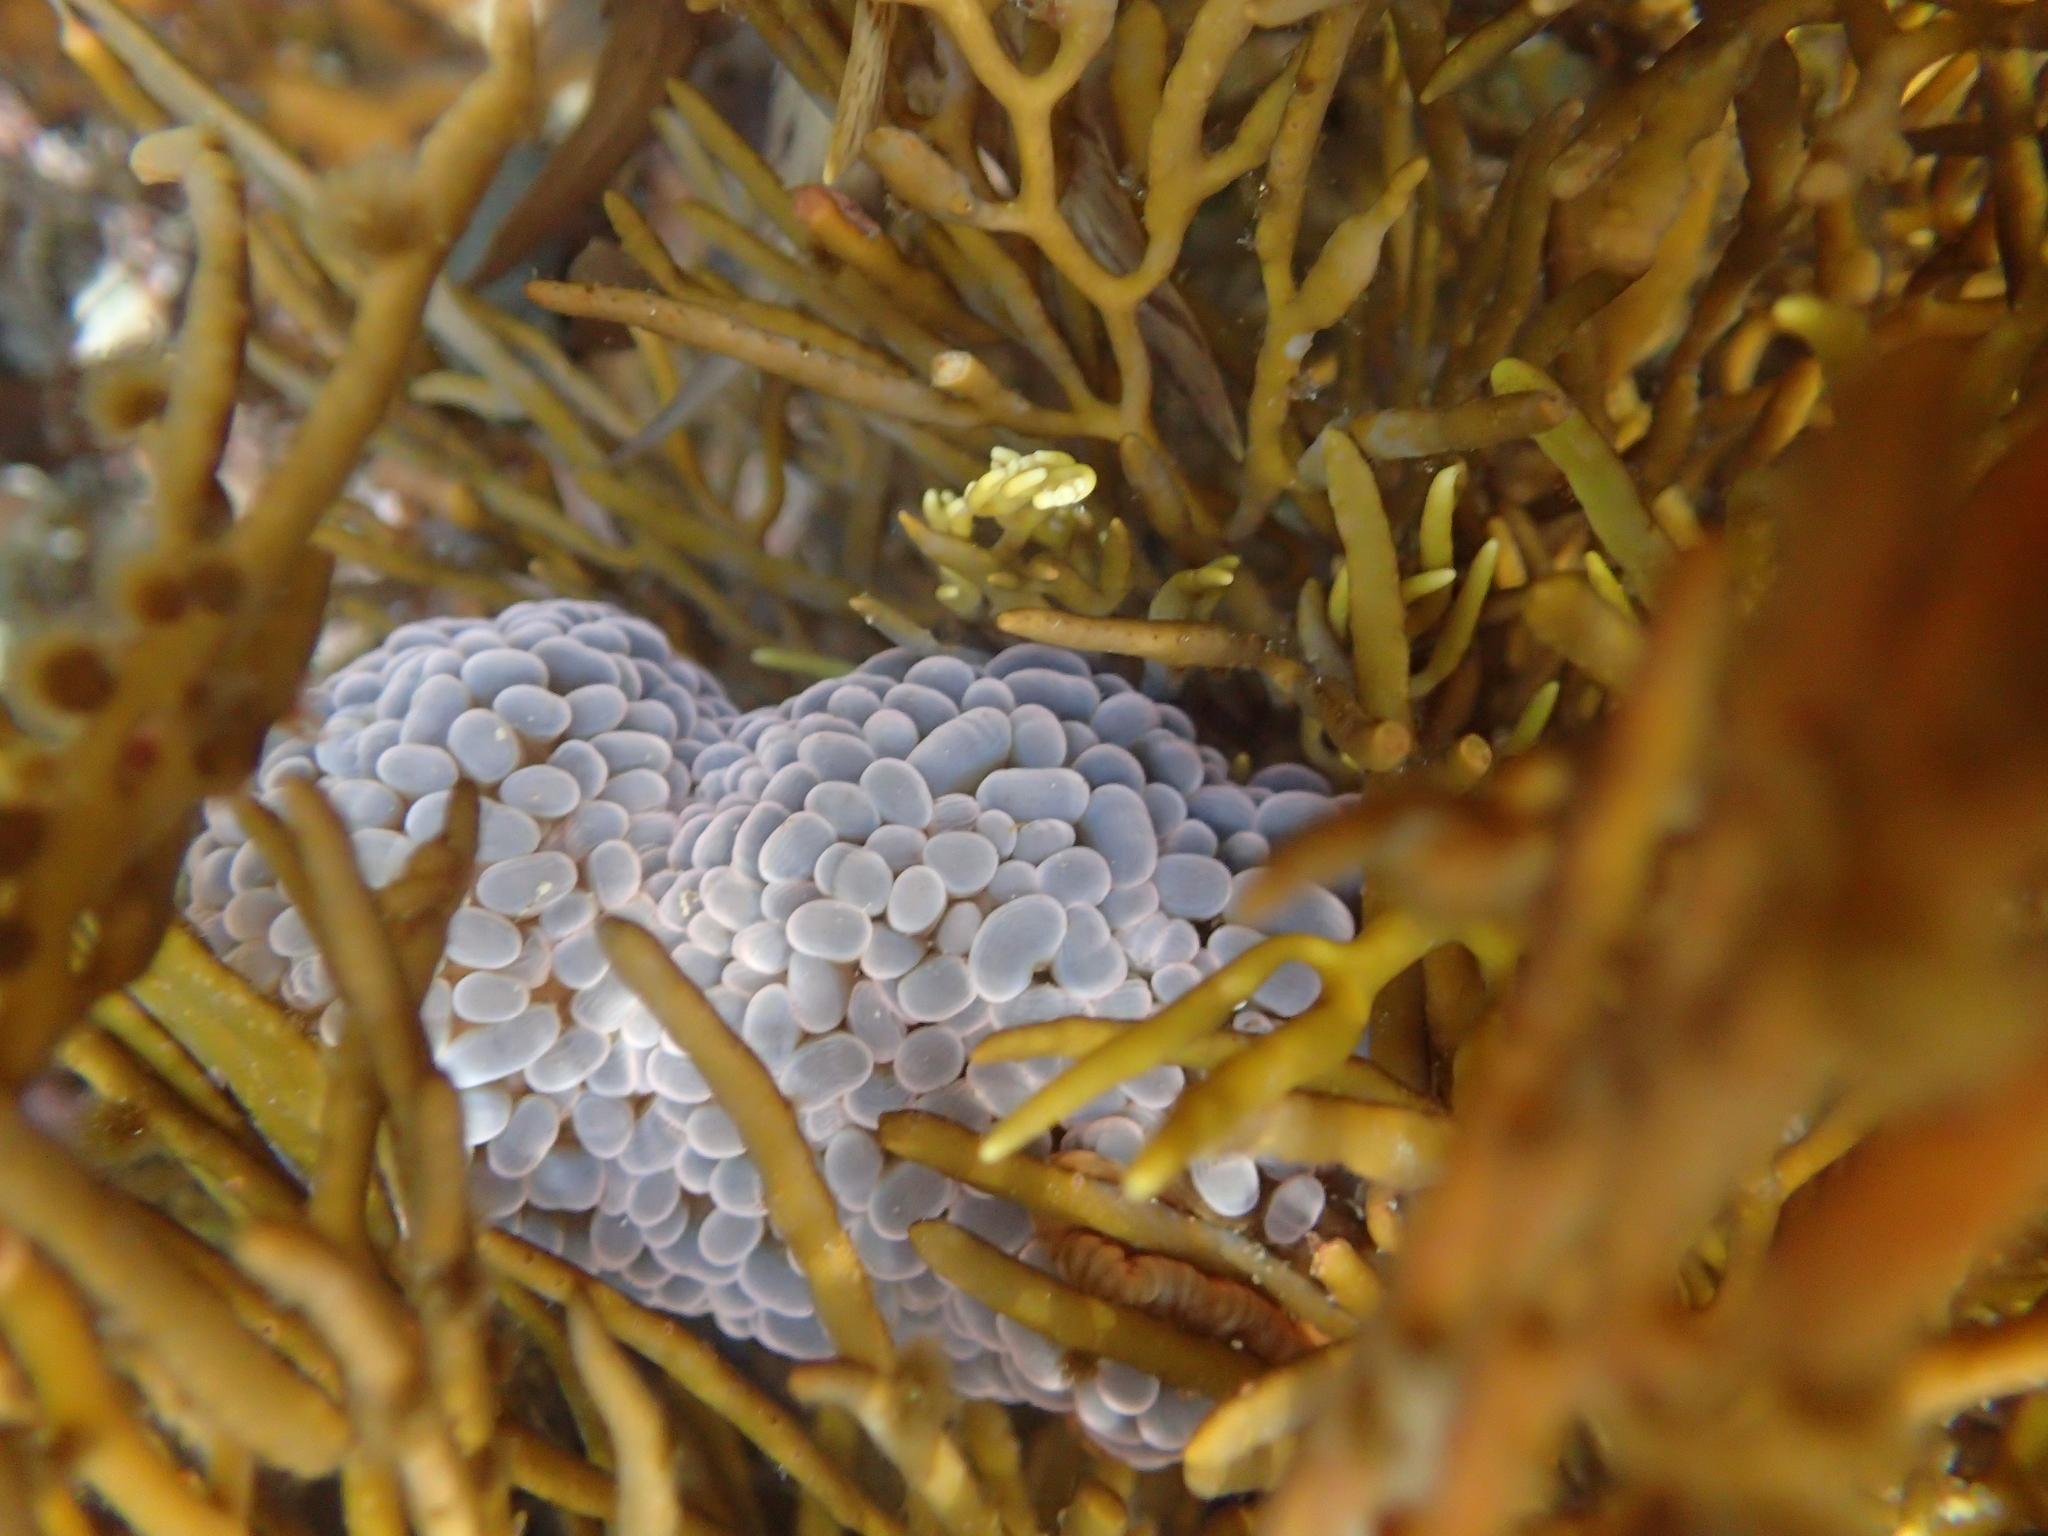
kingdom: Animalia
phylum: Cnidaria
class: Anthozoa
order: Actiniaria
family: Actiniidae
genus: Phlyctenactis
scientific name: Phlyctenactis tuberculosa
